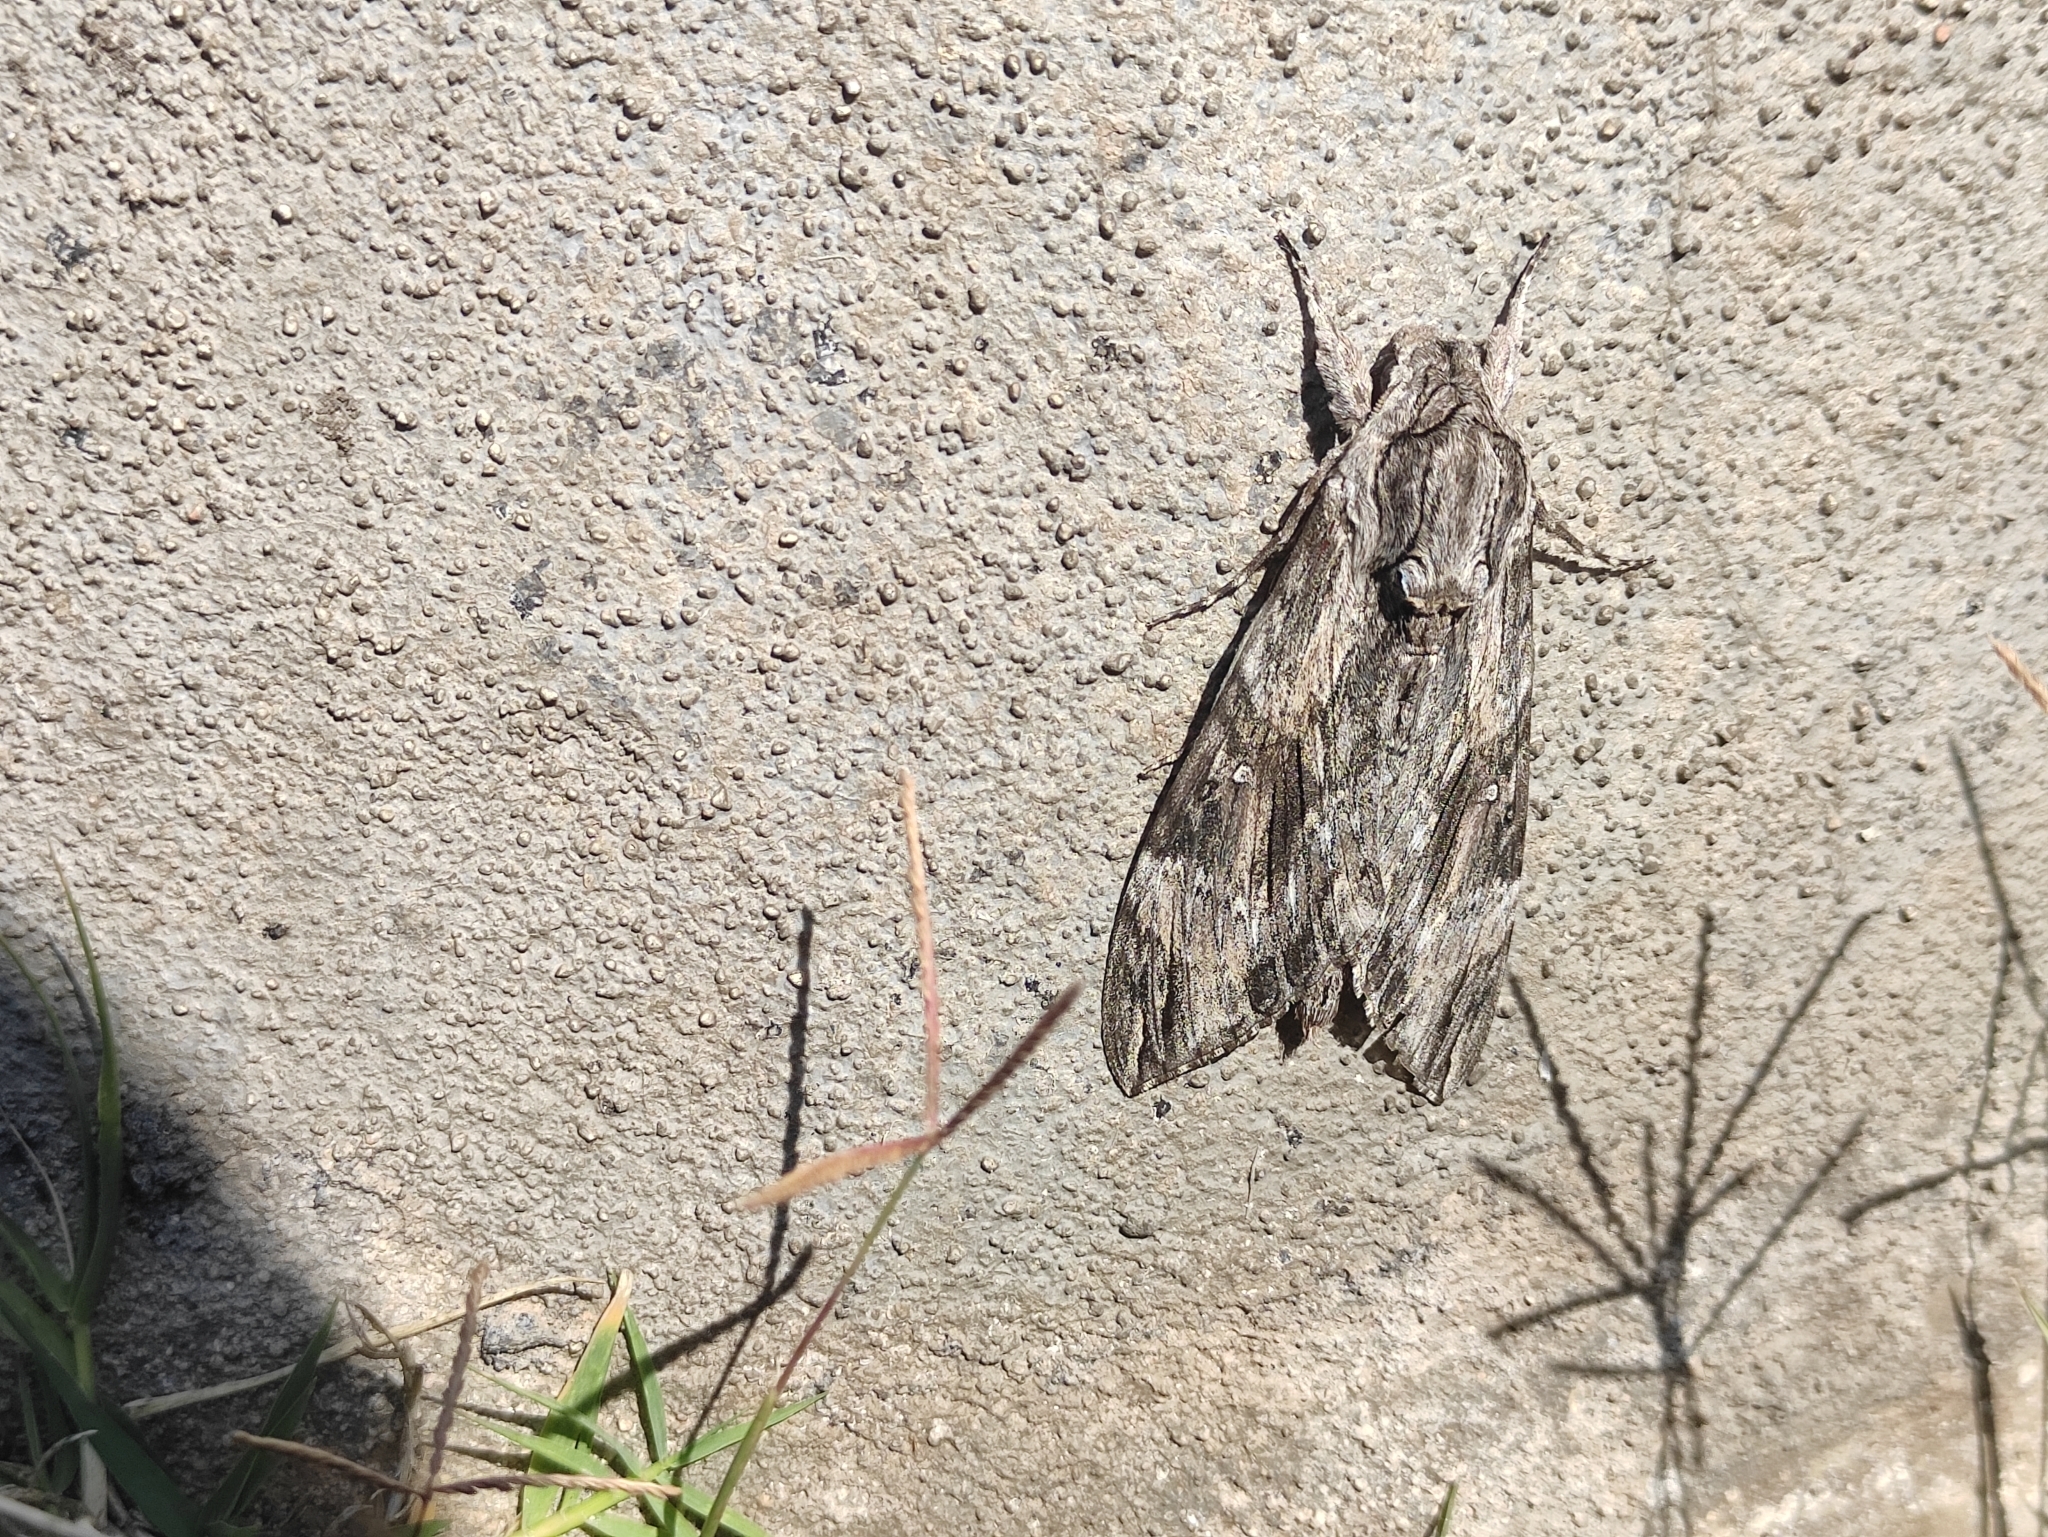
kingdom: Animalia
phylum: Arthropoda
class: Insecta
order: Lepidoptera
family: Sphingidae
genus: Agrius
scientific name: Agrius convolvuli
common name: Convolvulus hawkmoth
